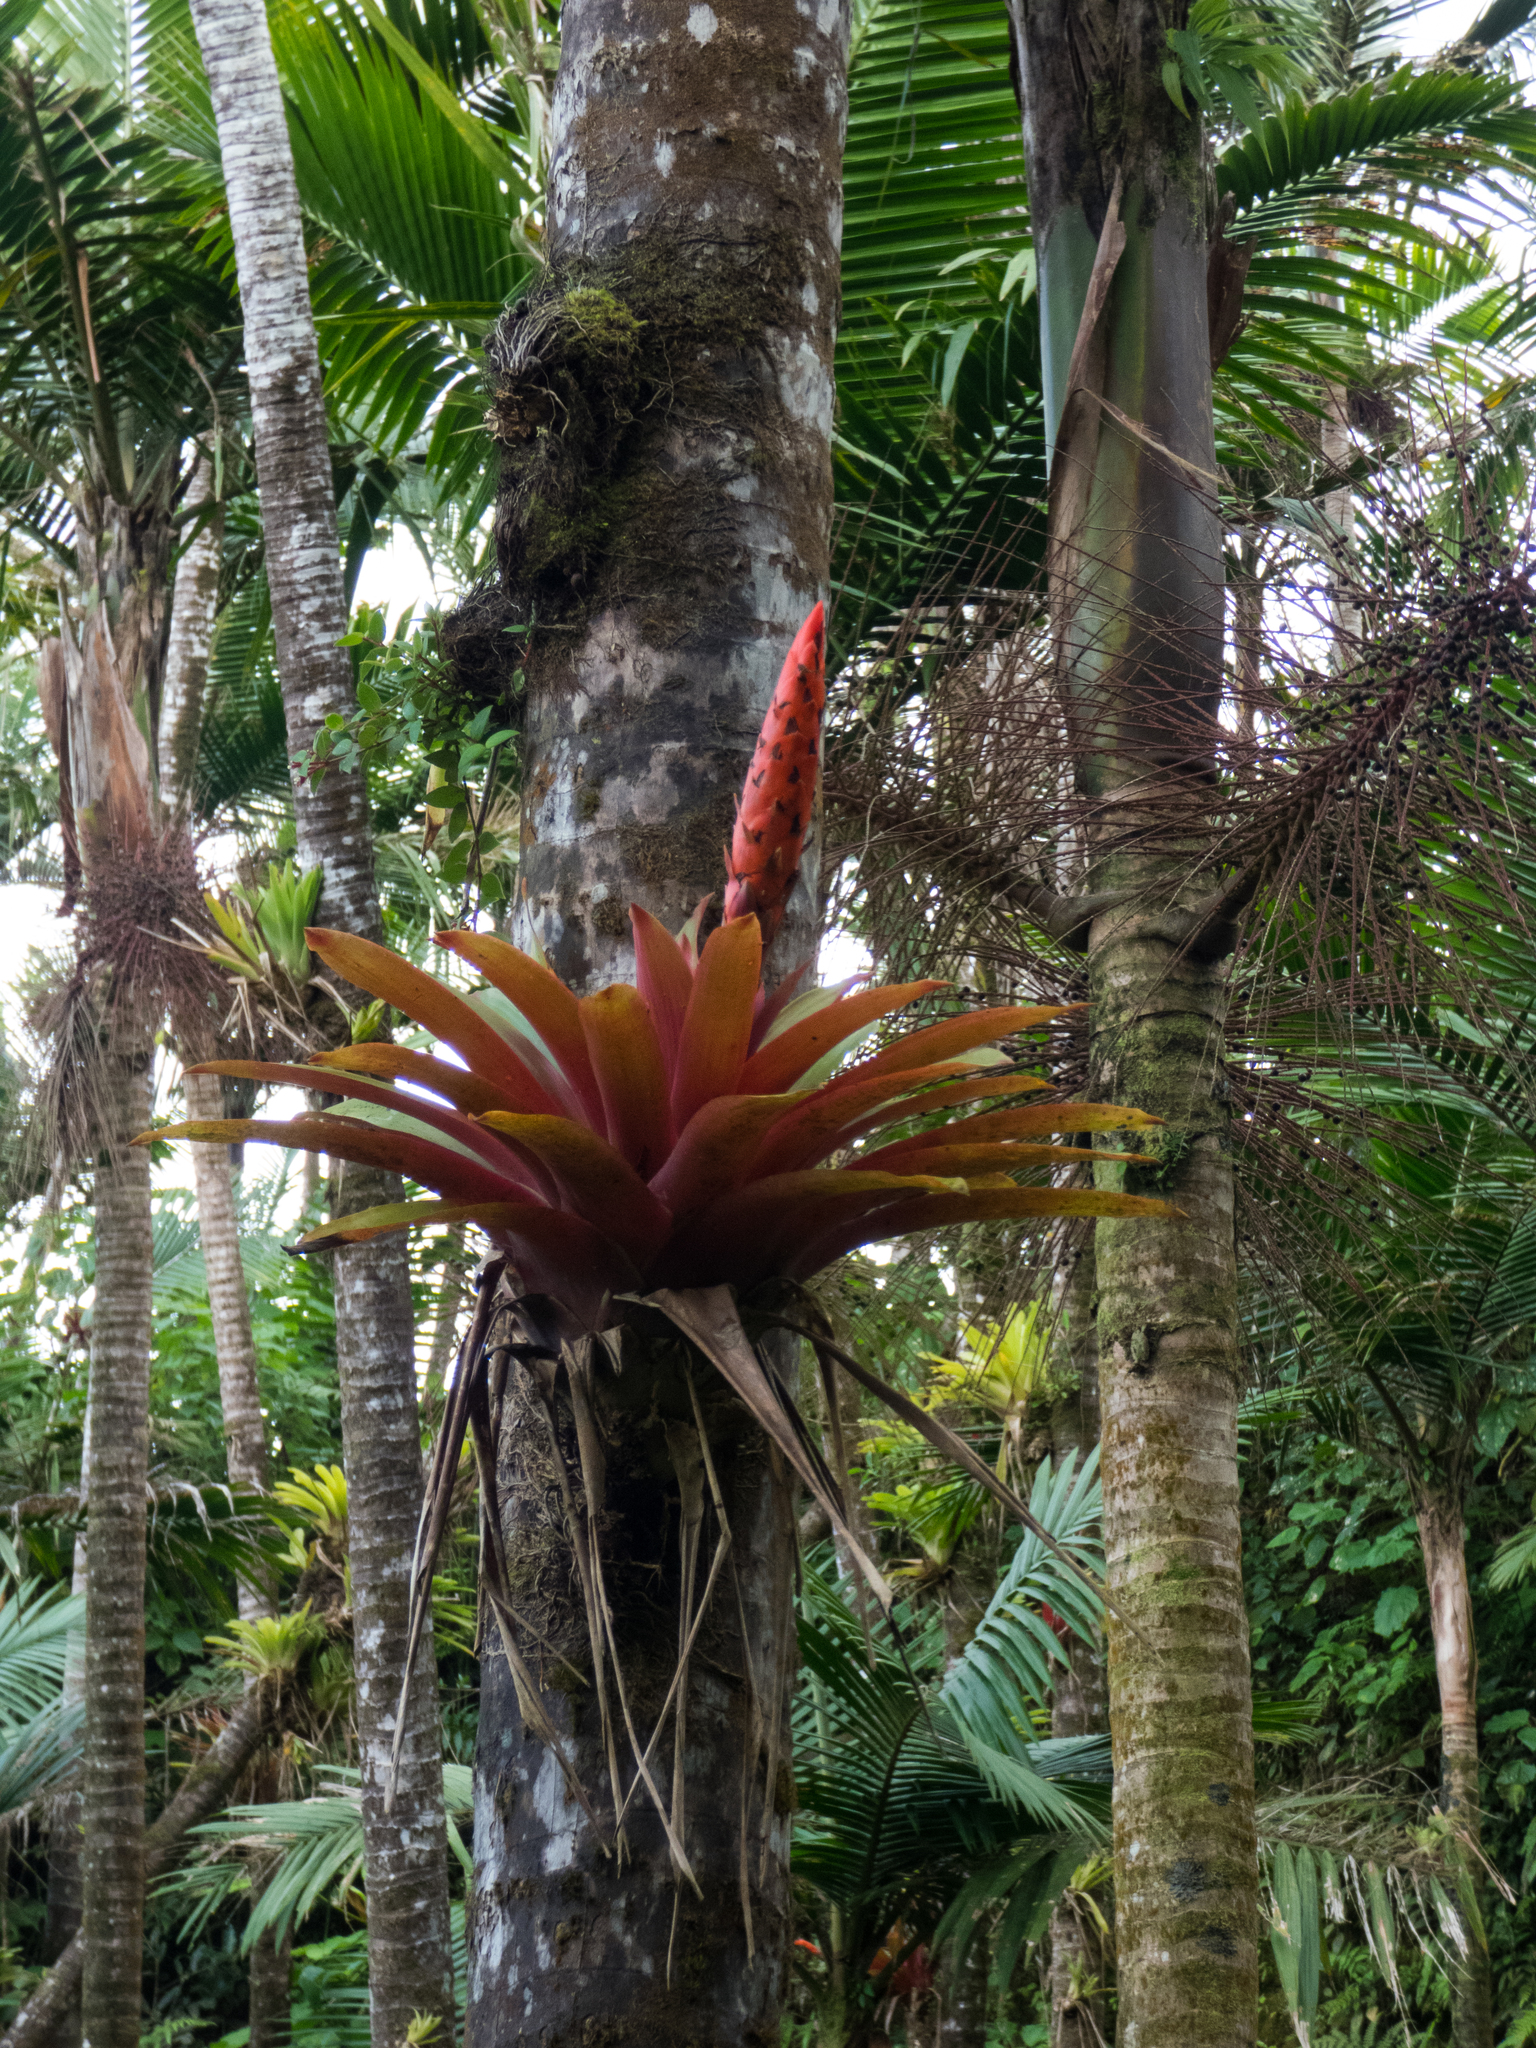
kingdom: Plantae
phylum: Tracheophyta
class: Liliopsida
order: Poales
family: Bromeliaceae
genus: Guzmania
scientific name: Guzmania berteroniana
